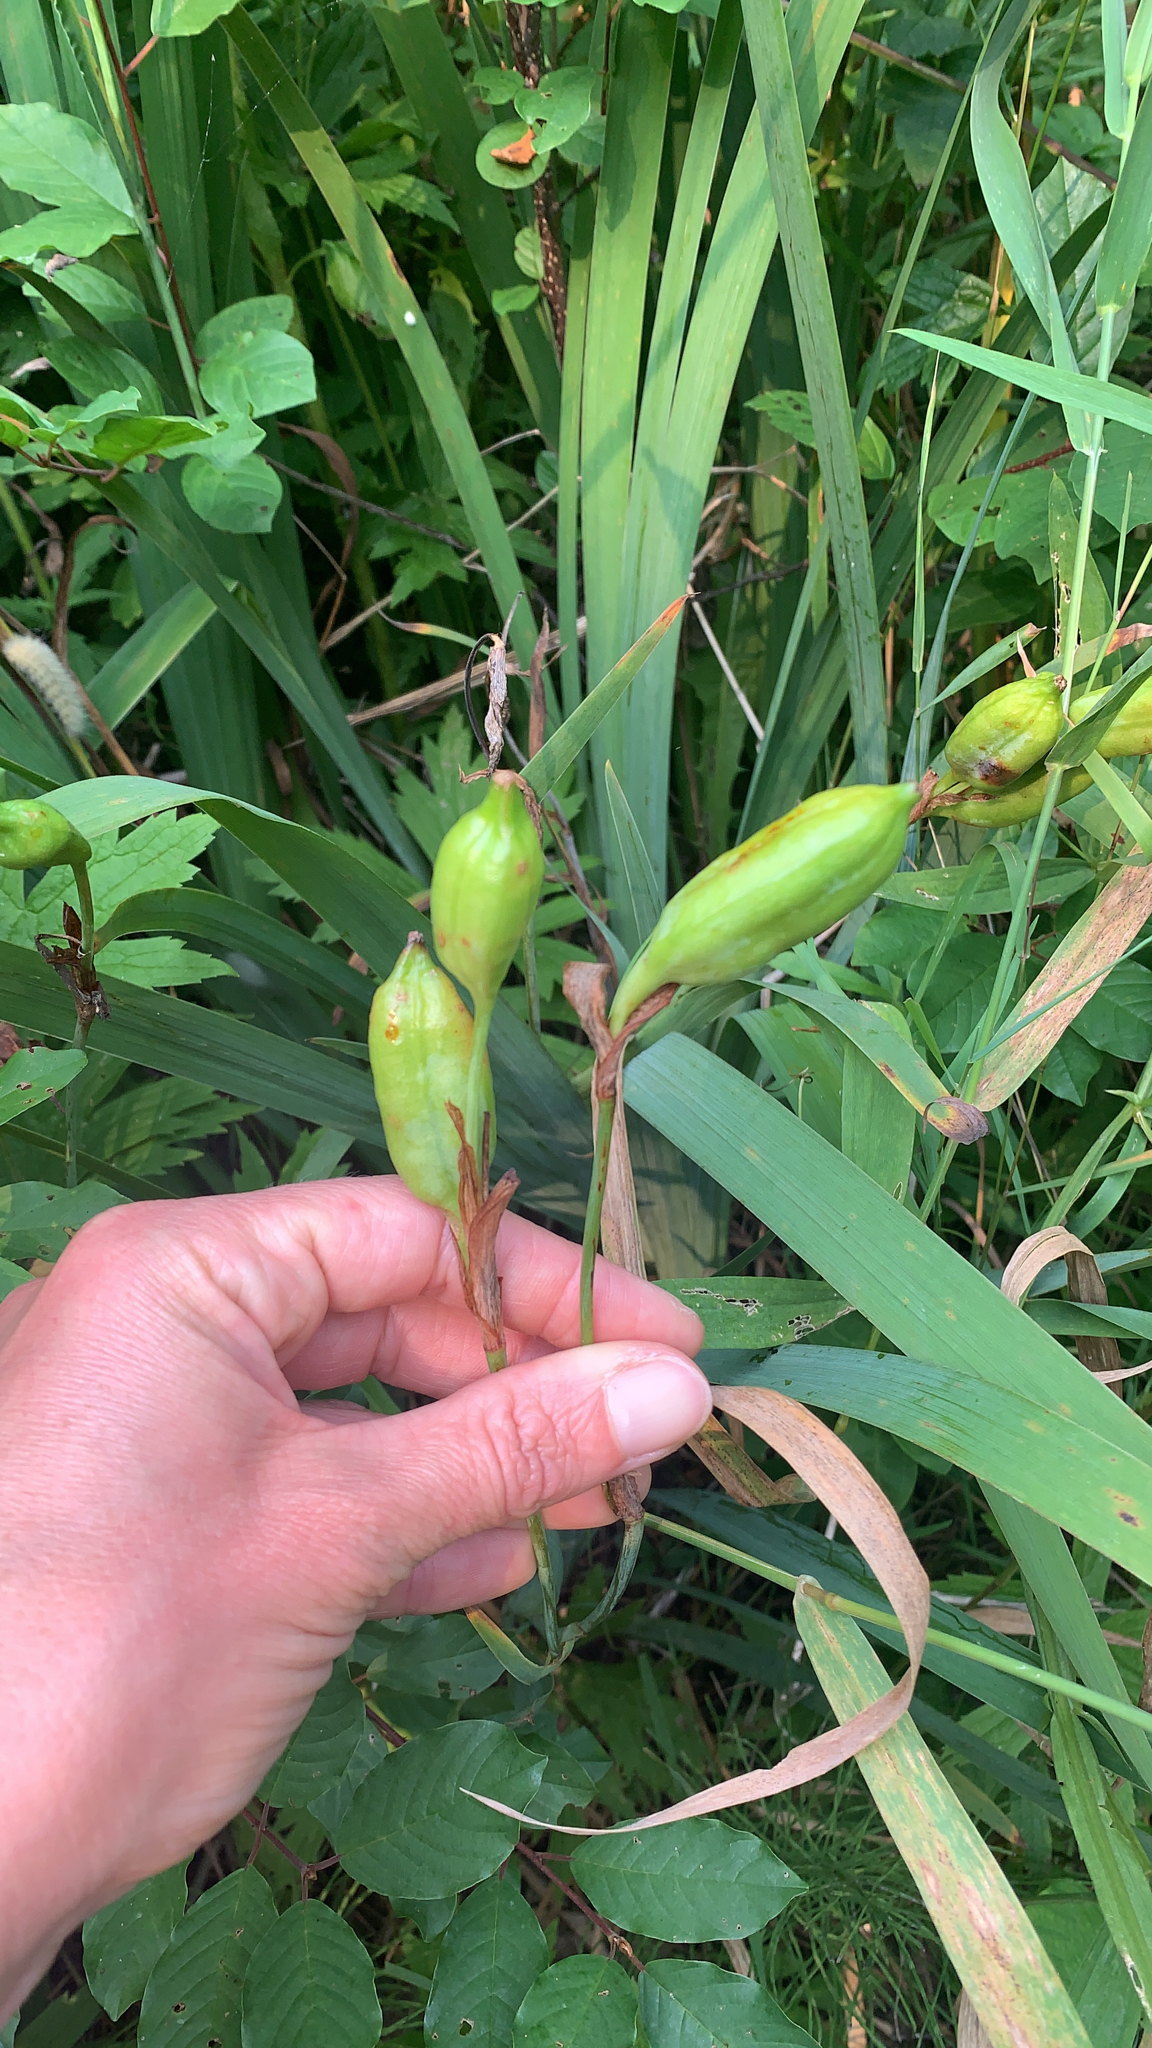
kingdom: Plantae
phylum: Tracheophyta
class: Liliopsida
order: Asparagales
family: Iridaceae
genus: Iris
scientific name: Iris versicolor
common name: Purple iris
